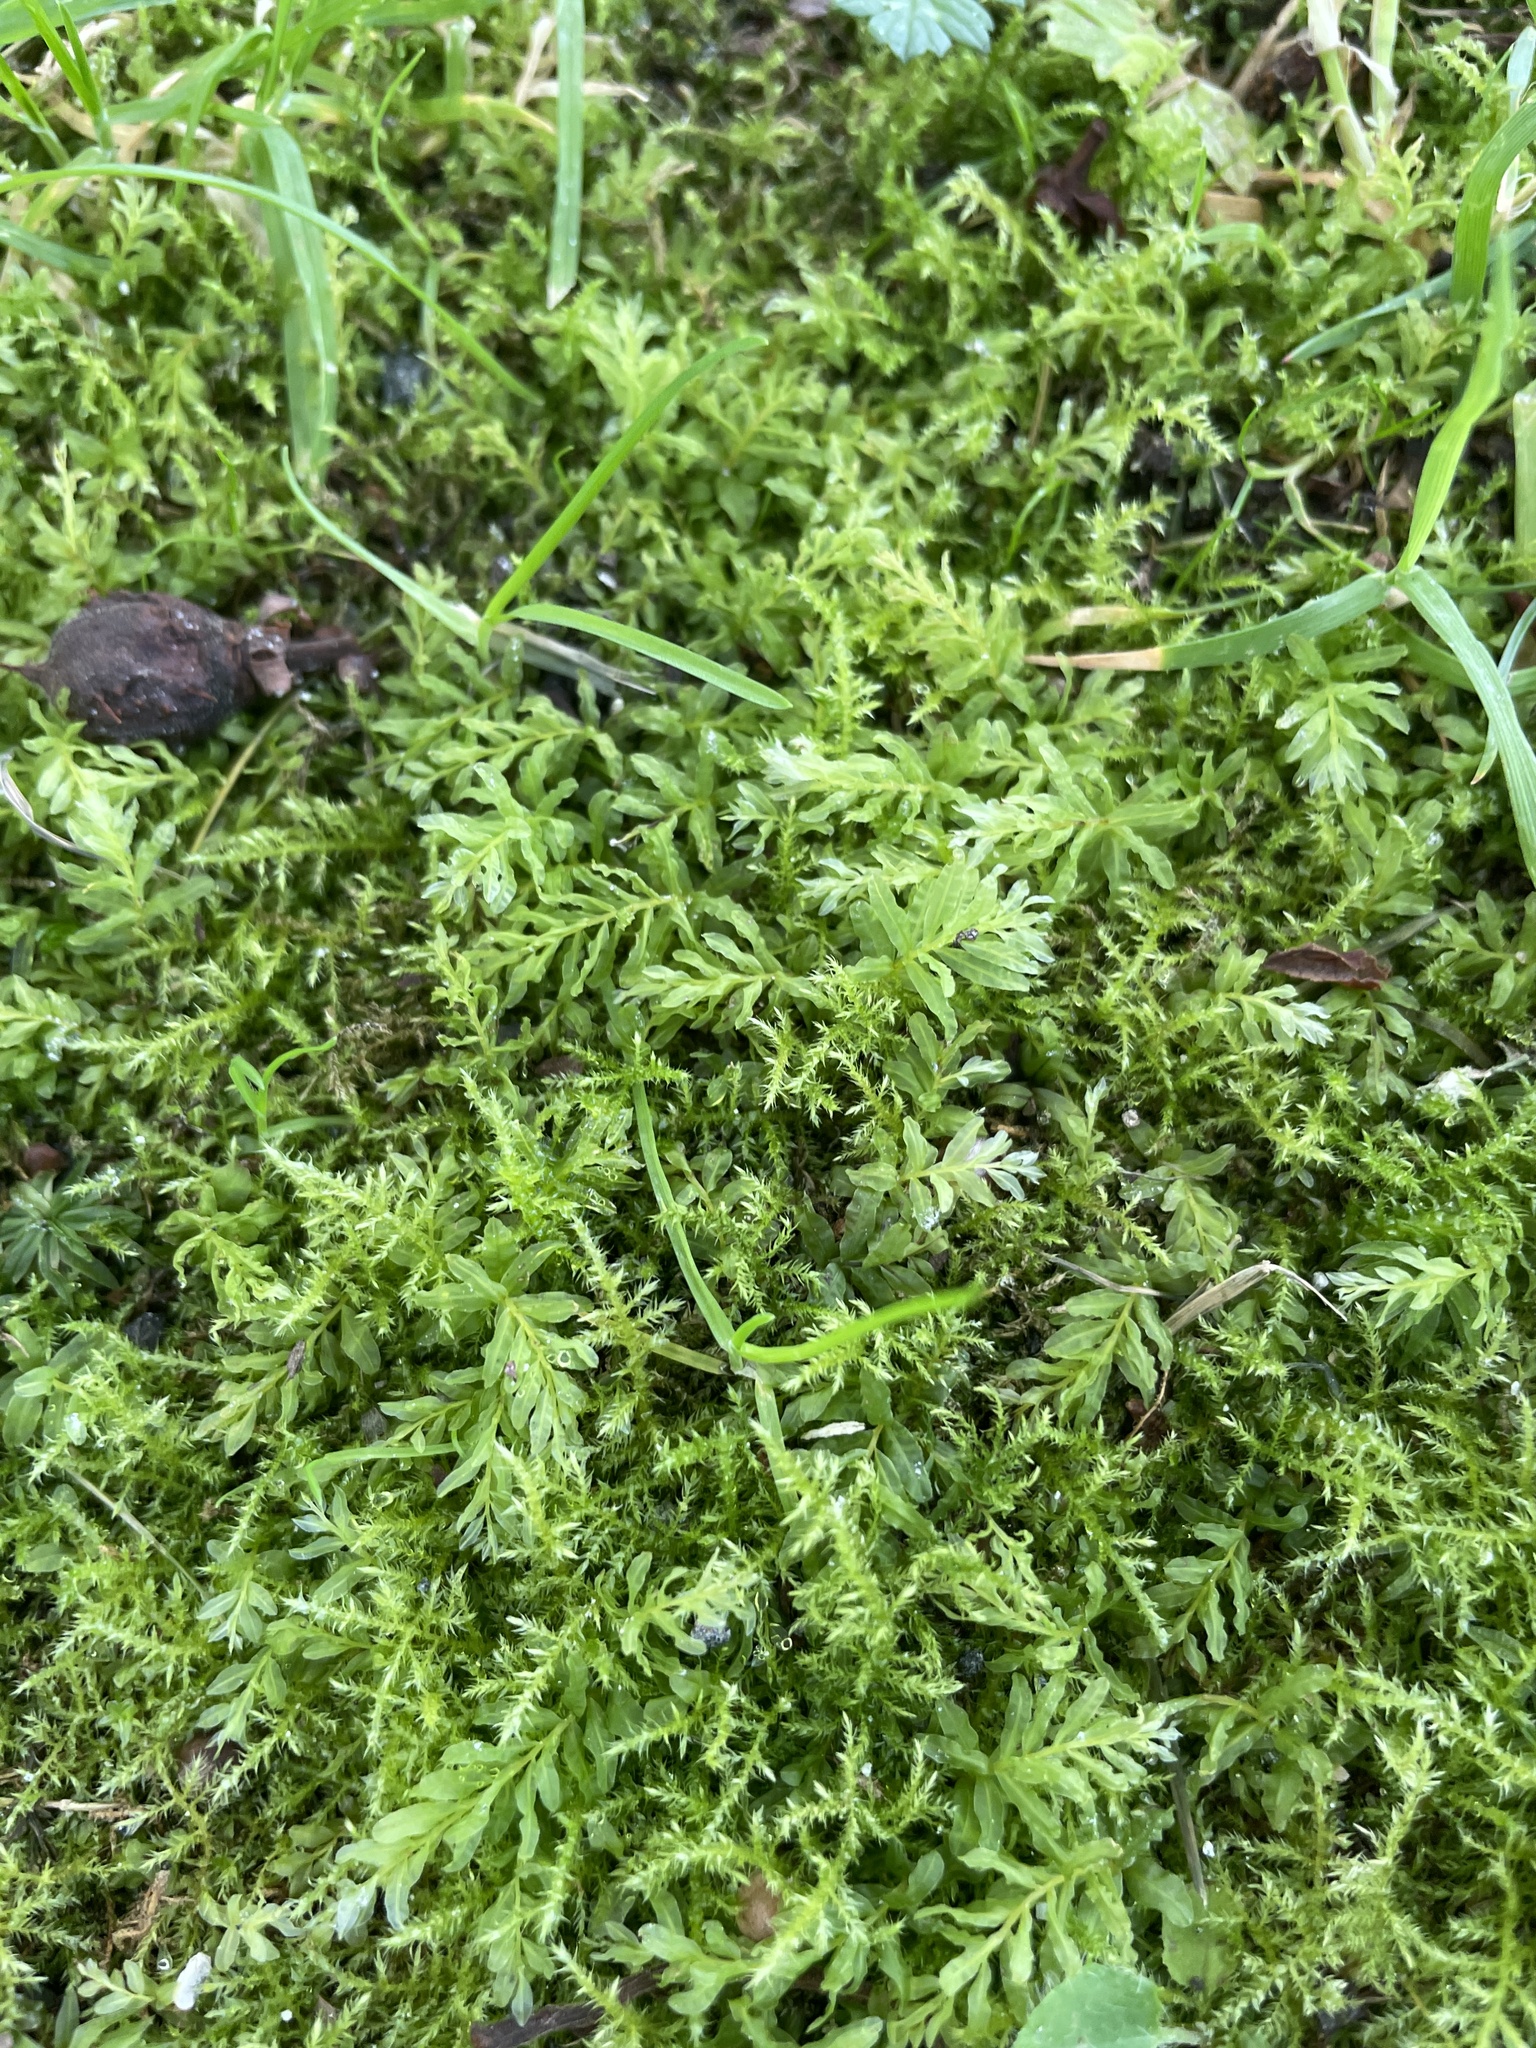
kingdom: Plantae
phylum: Bryophyta
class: Bryopsida
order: Bryales
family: Mniaceae
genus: Plagiomnium
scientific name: Plagiomnium undulatum
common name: Hart's-tongue thyme-moss
